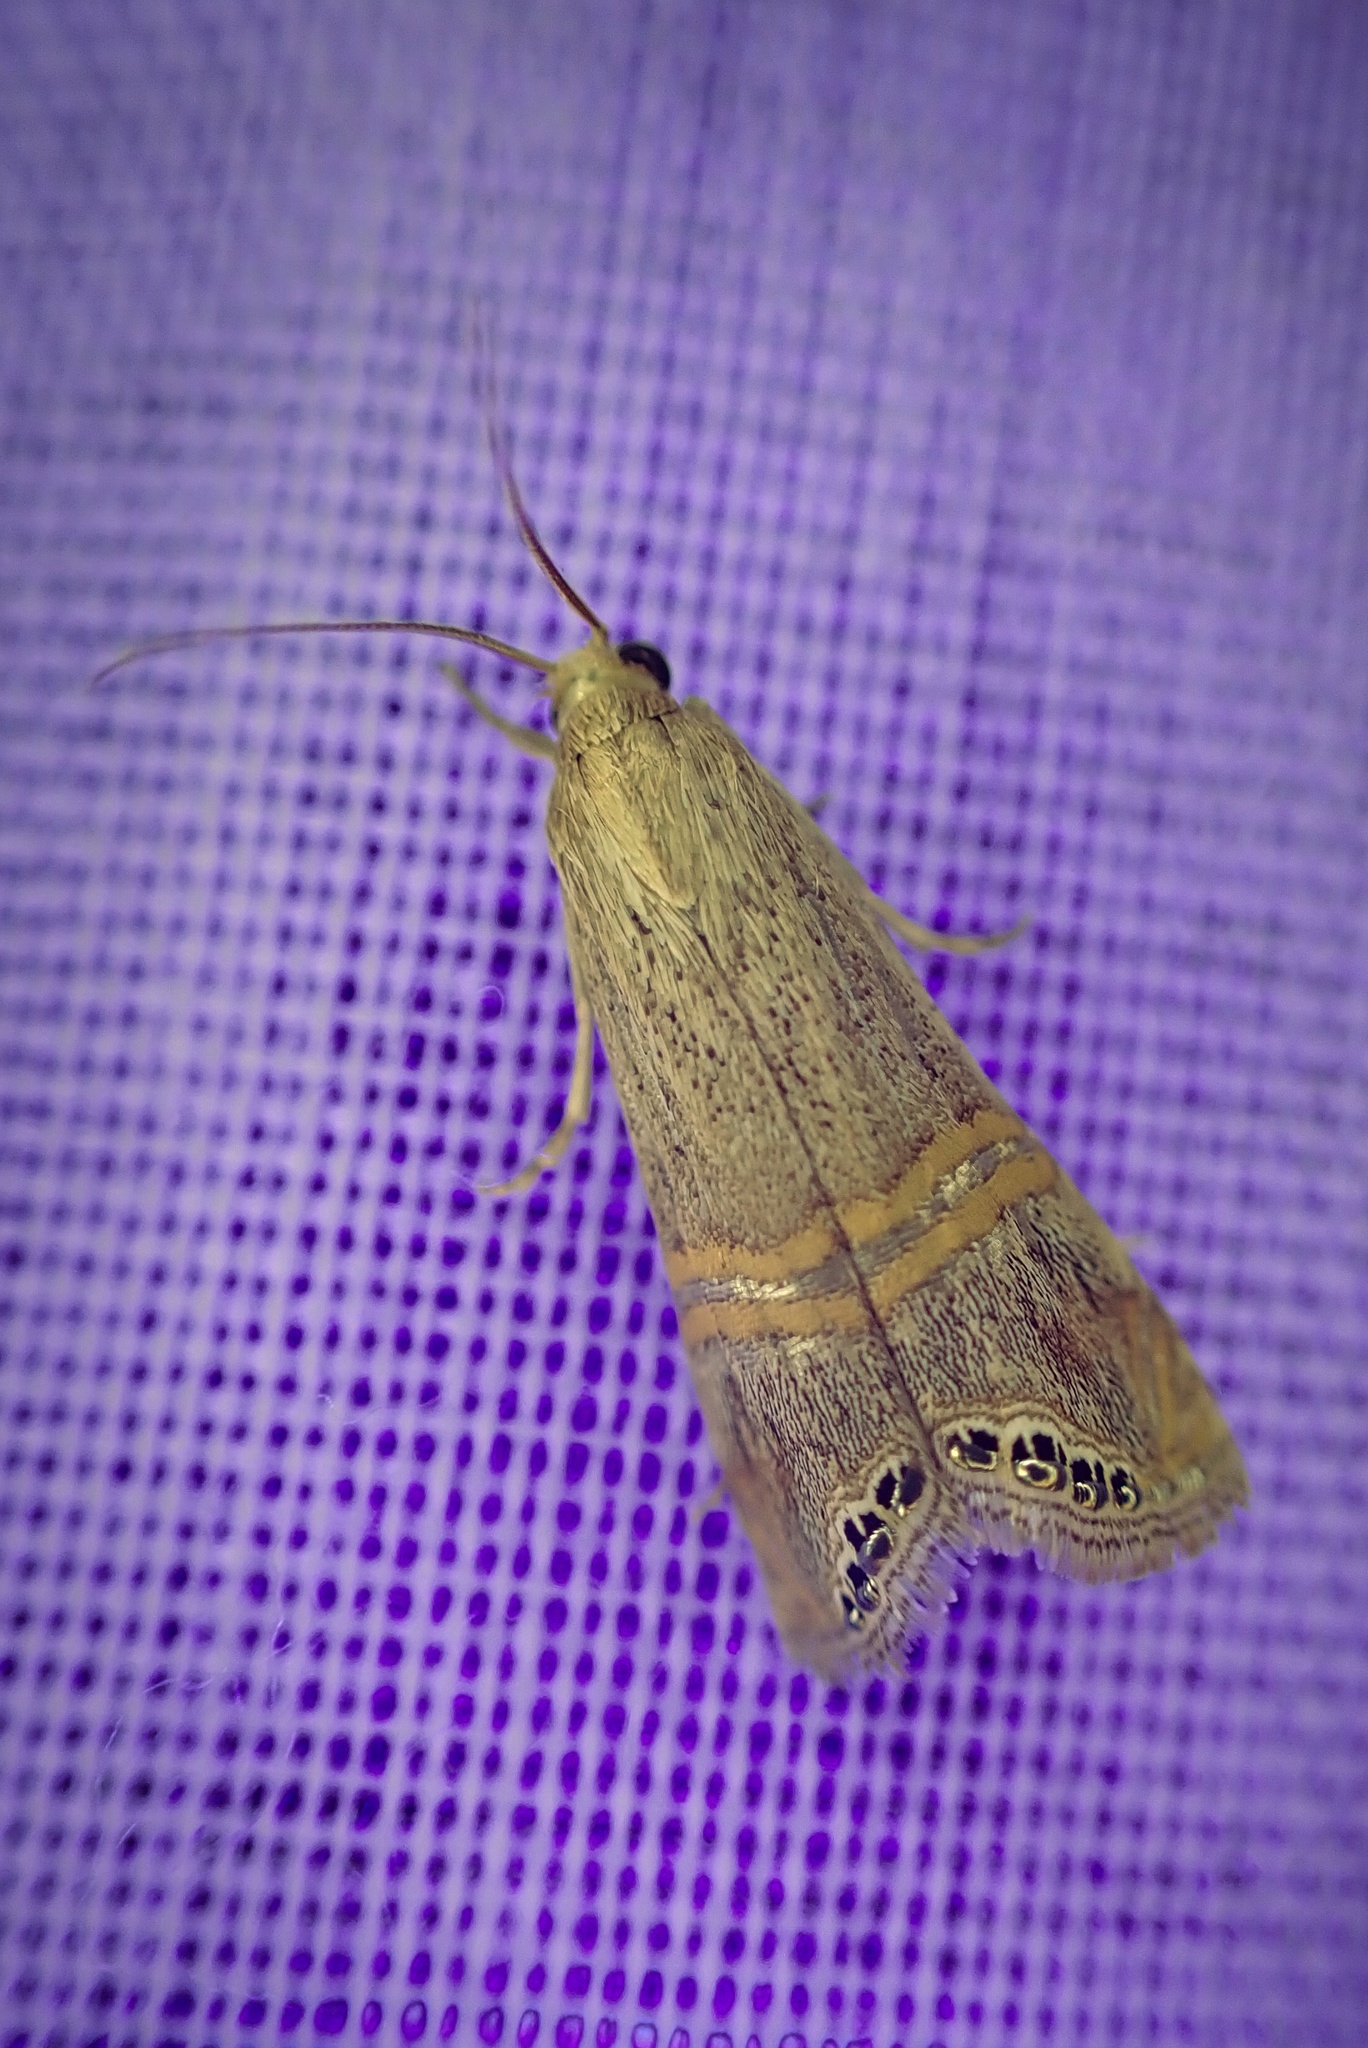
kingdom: Animalia
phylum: Arthropoda
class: Insecta
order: Lepidoptera
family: Crambidae
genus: Euchromius
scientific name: Euchromius ocellea
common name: Necklace veneer moth
